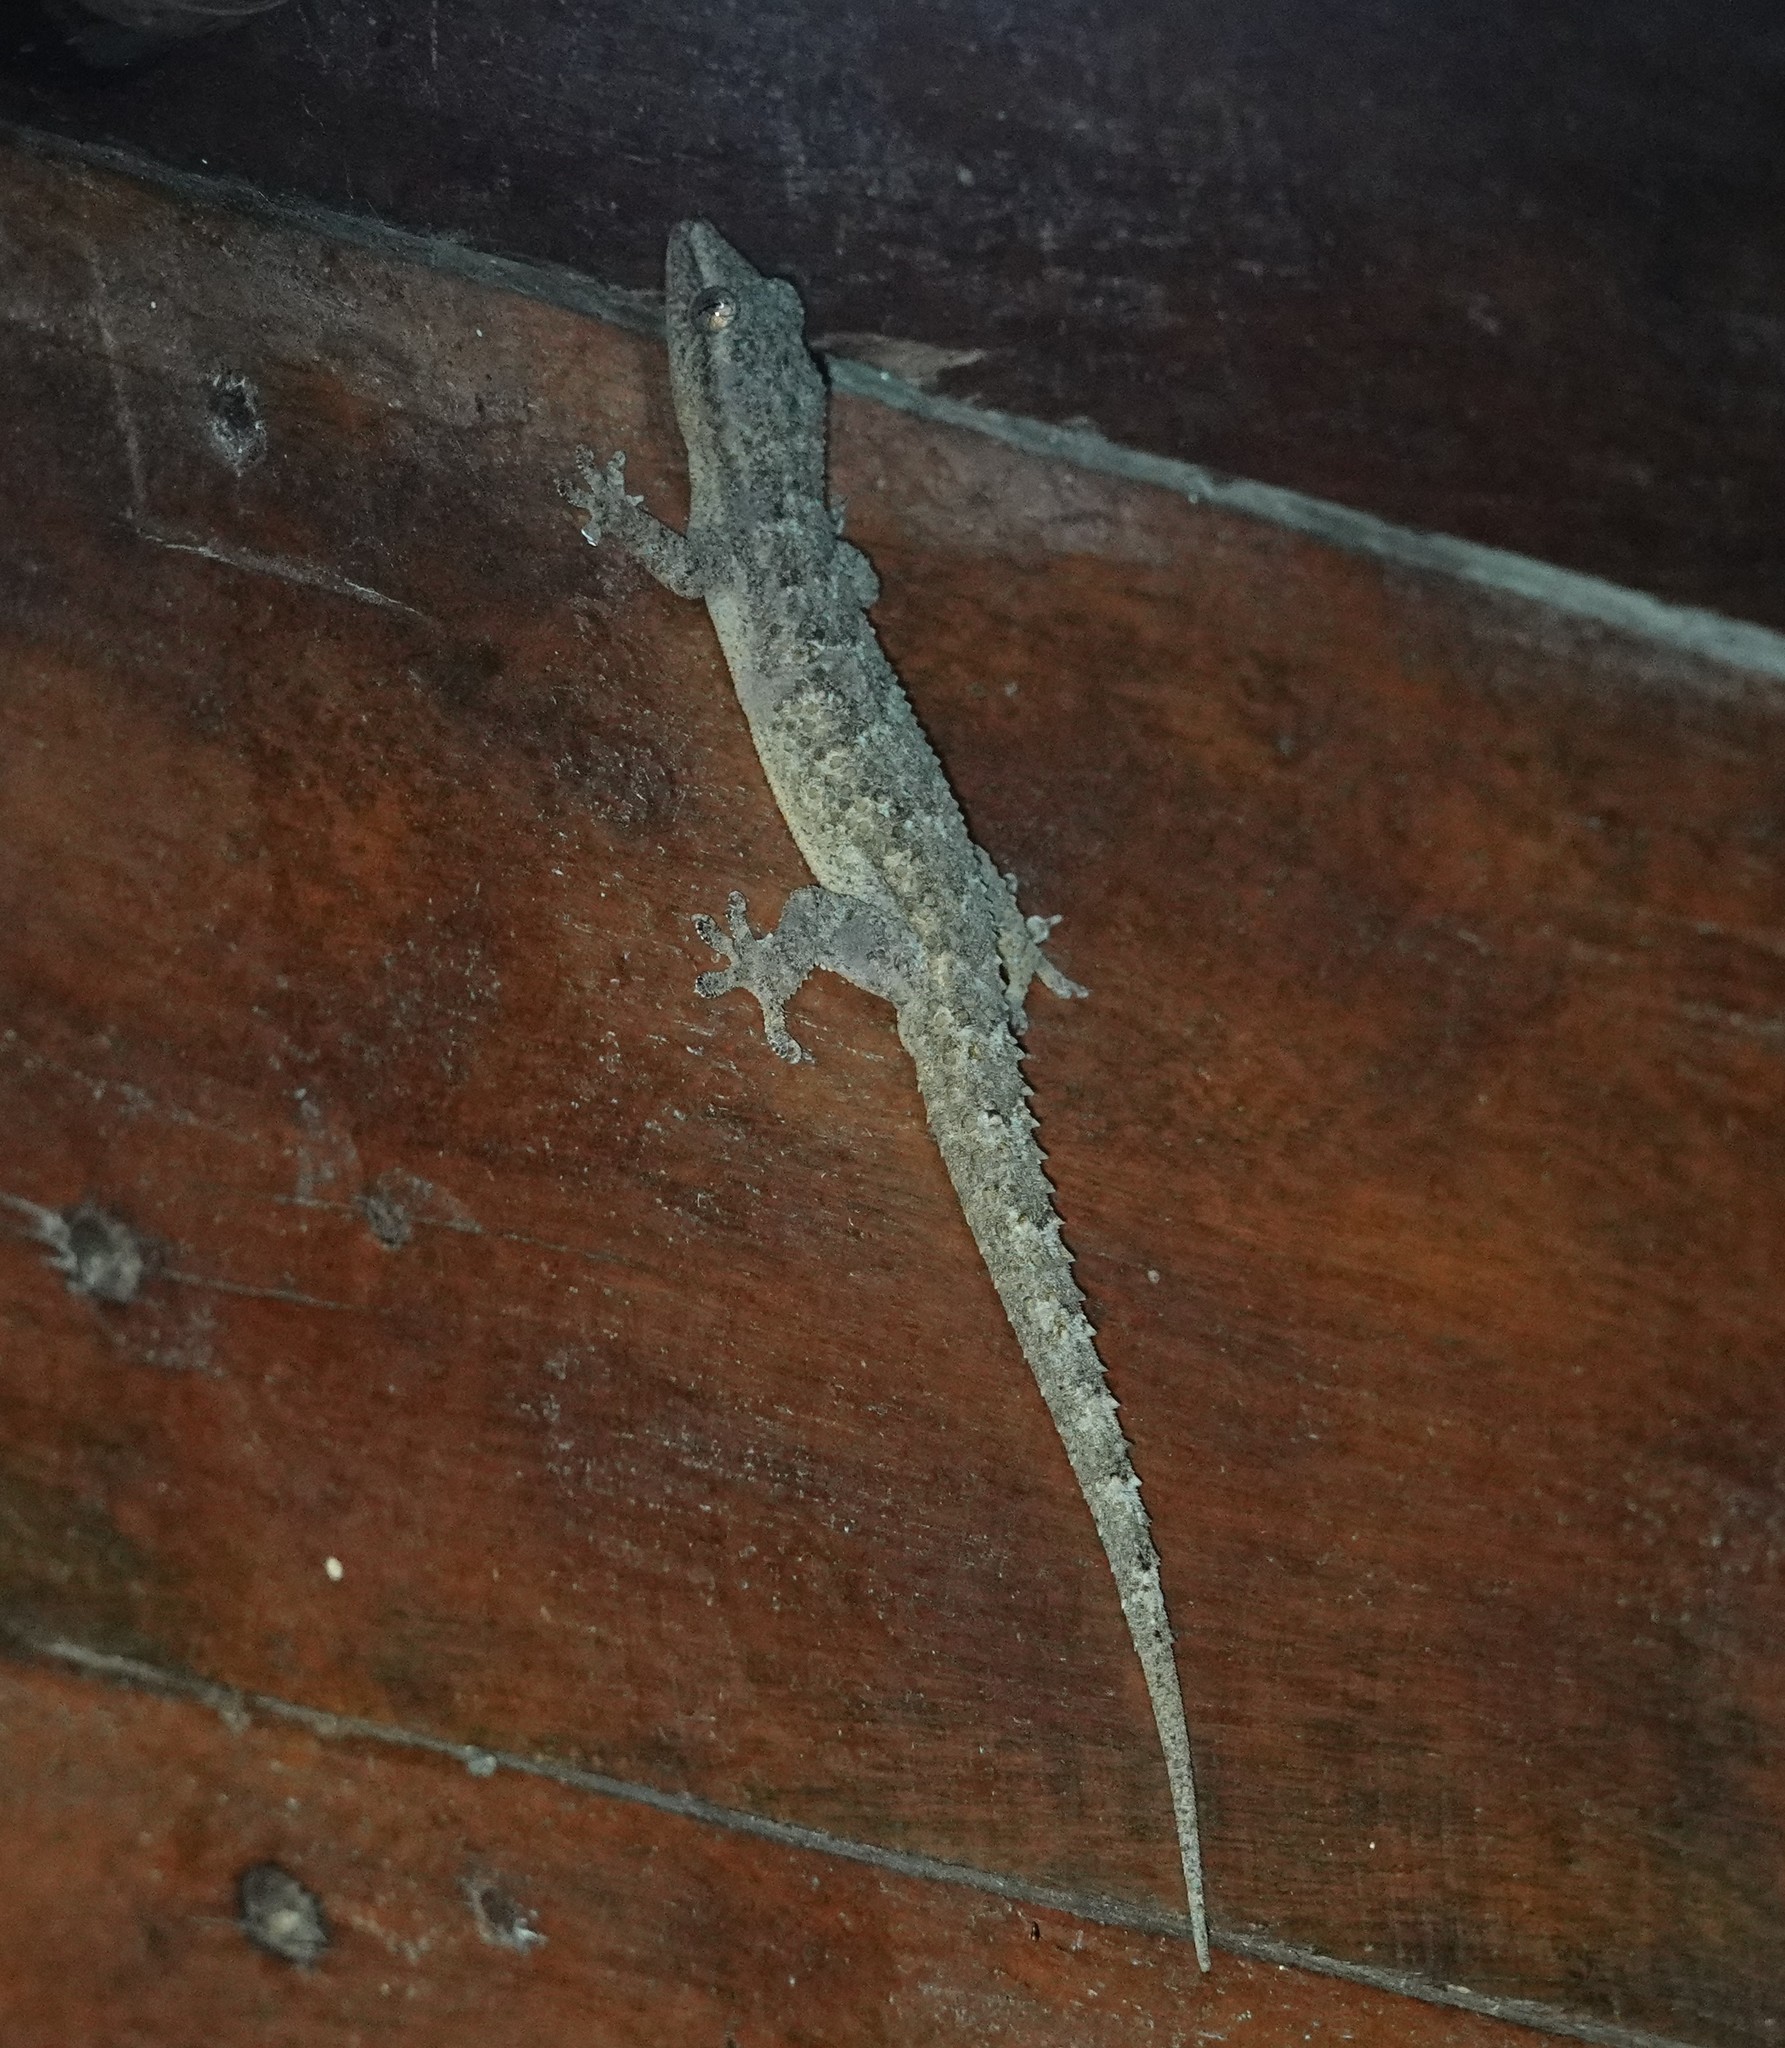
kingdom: Animalia
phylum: Chordata
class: Squamata
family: Gekkonidae
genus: Hemidactylus
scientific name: Hemidactylus palaichthus
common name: Antilles leaf-toed gecko
